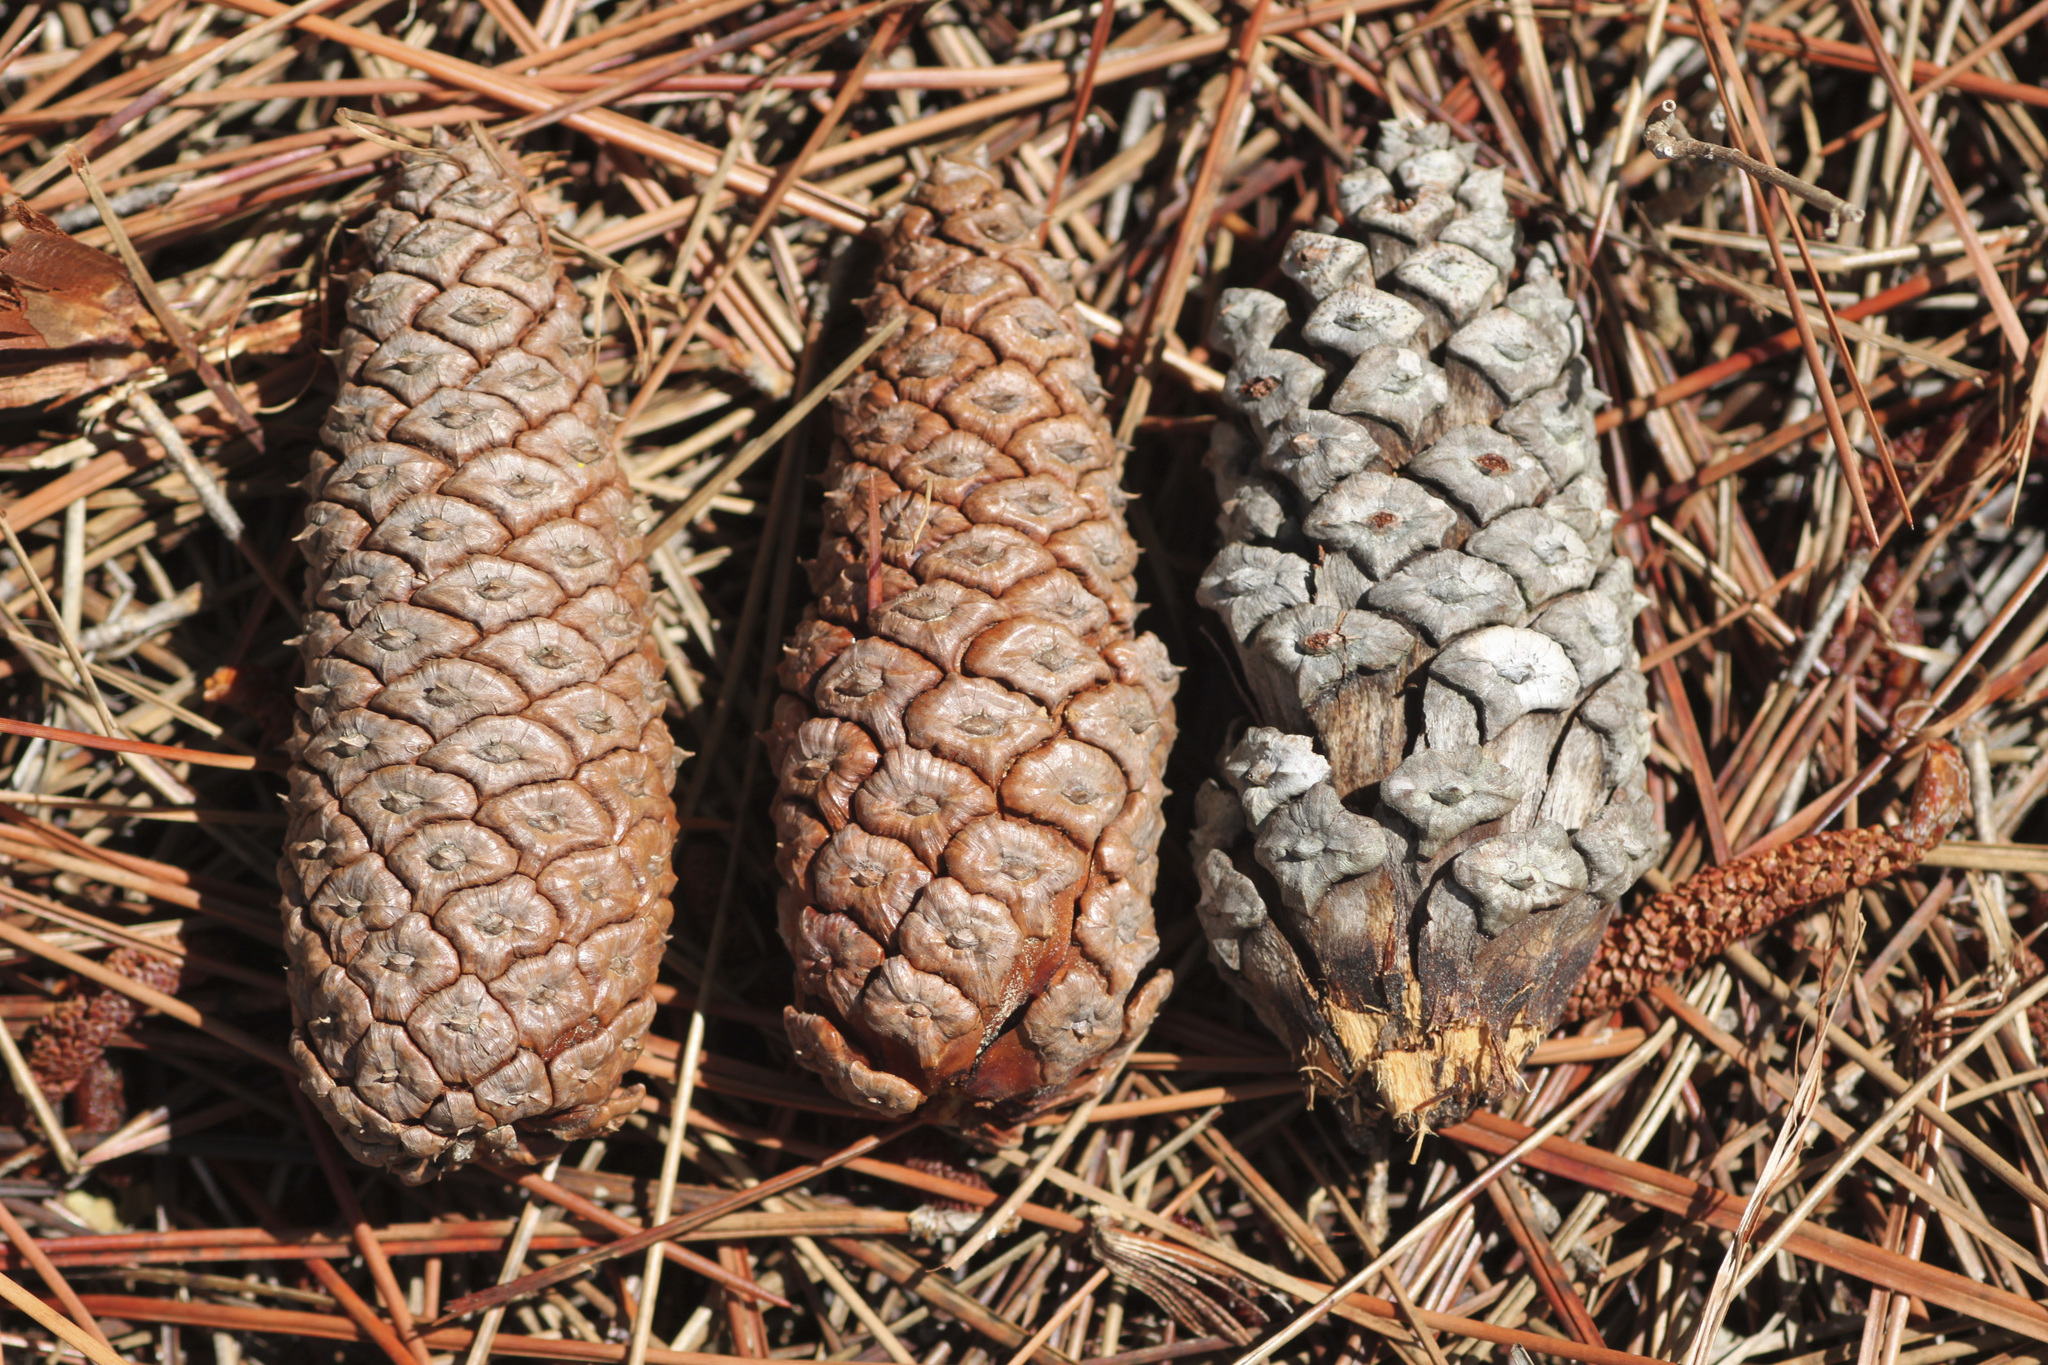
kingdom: Plantae
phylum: Tracheophyta
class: Pinopsida
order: Pinales
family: Pinaceae
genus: Pinus
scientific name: Pinus elliottii
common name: Slash pine
